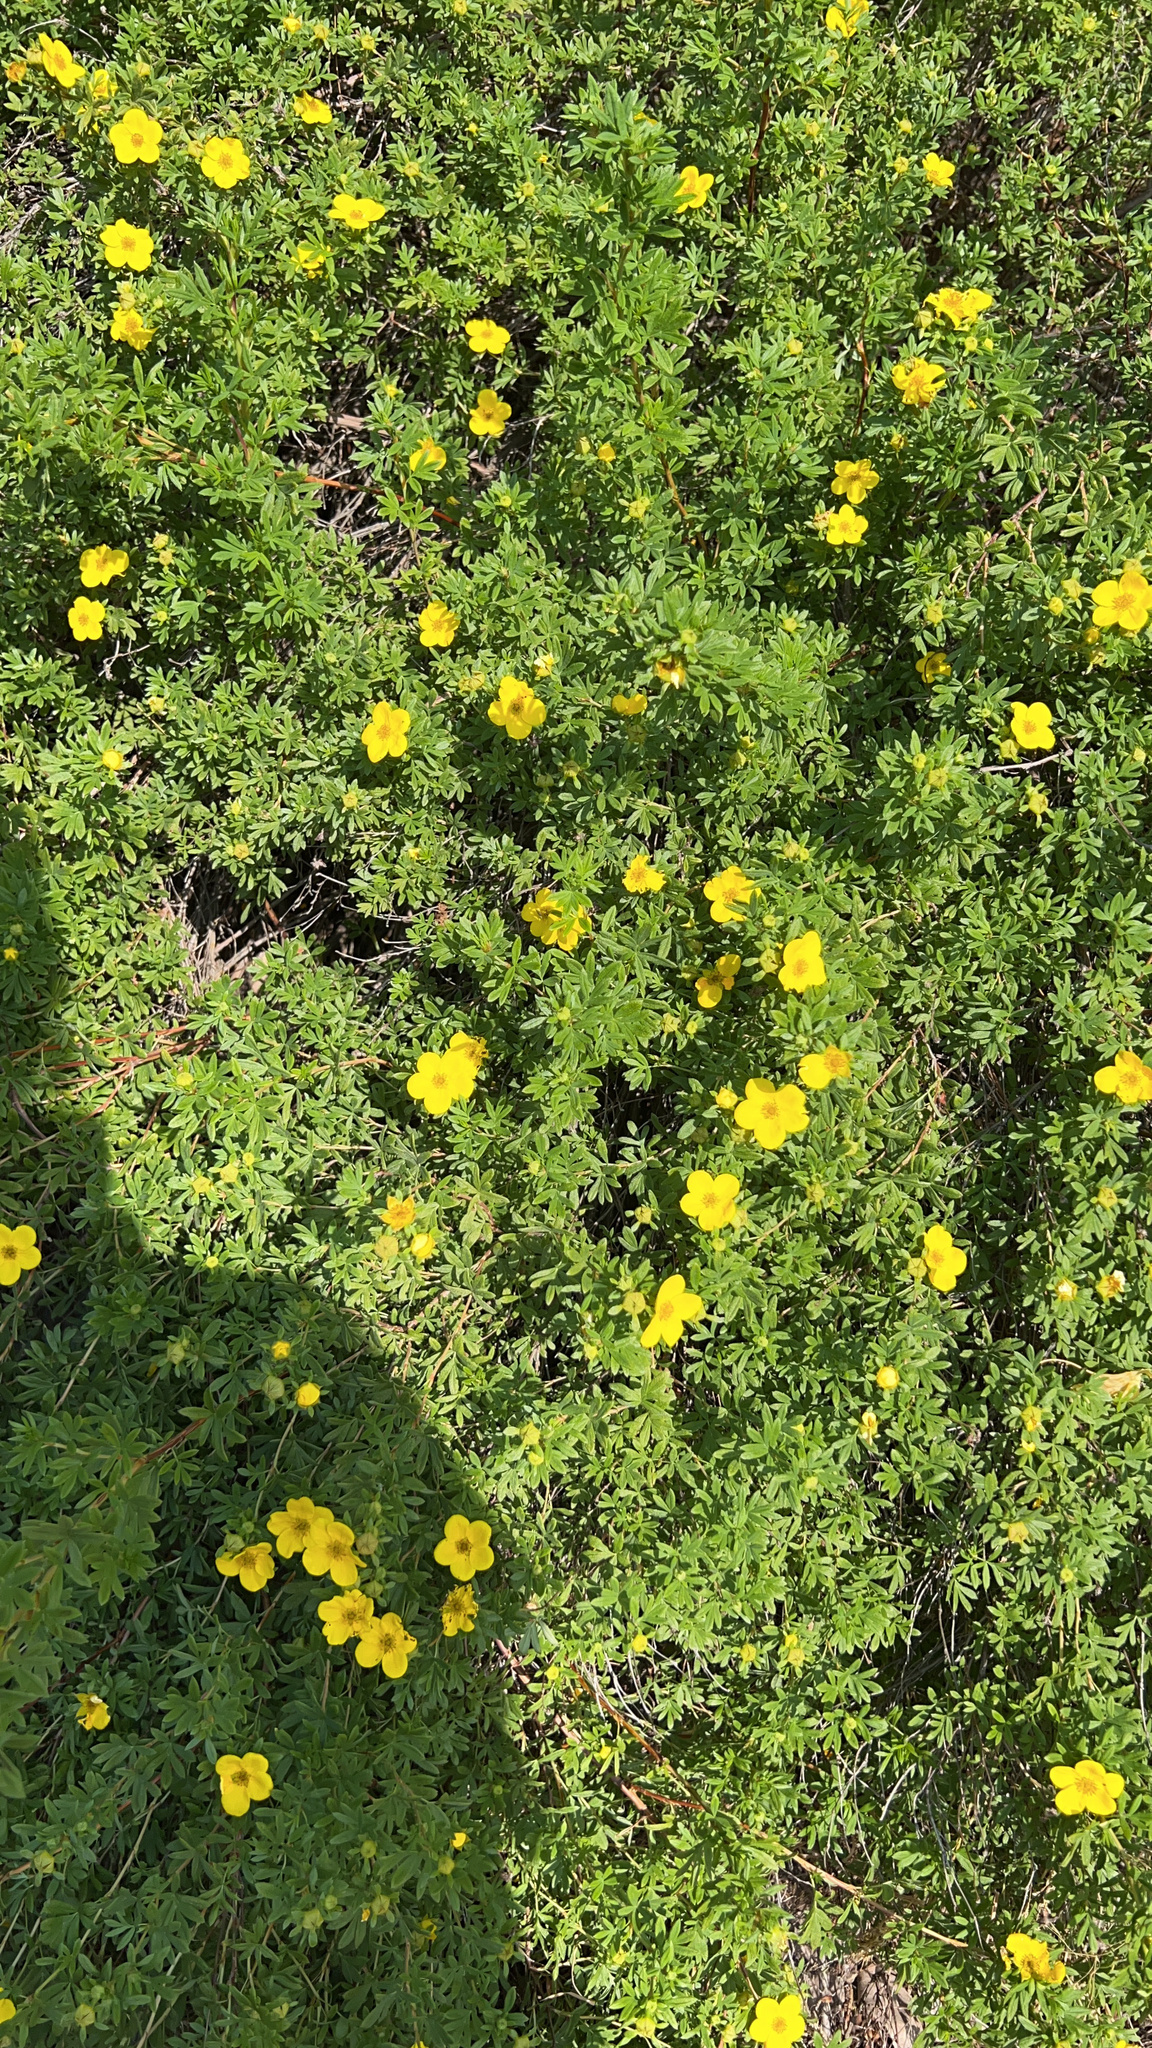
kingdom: Plantae
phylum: Tracheophyta
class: Magnoliopsida
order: Rosales
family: Rosaceae
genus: Dasiphora
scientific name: Dasiphora fruticosa
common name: Shrubby cinquefoil
